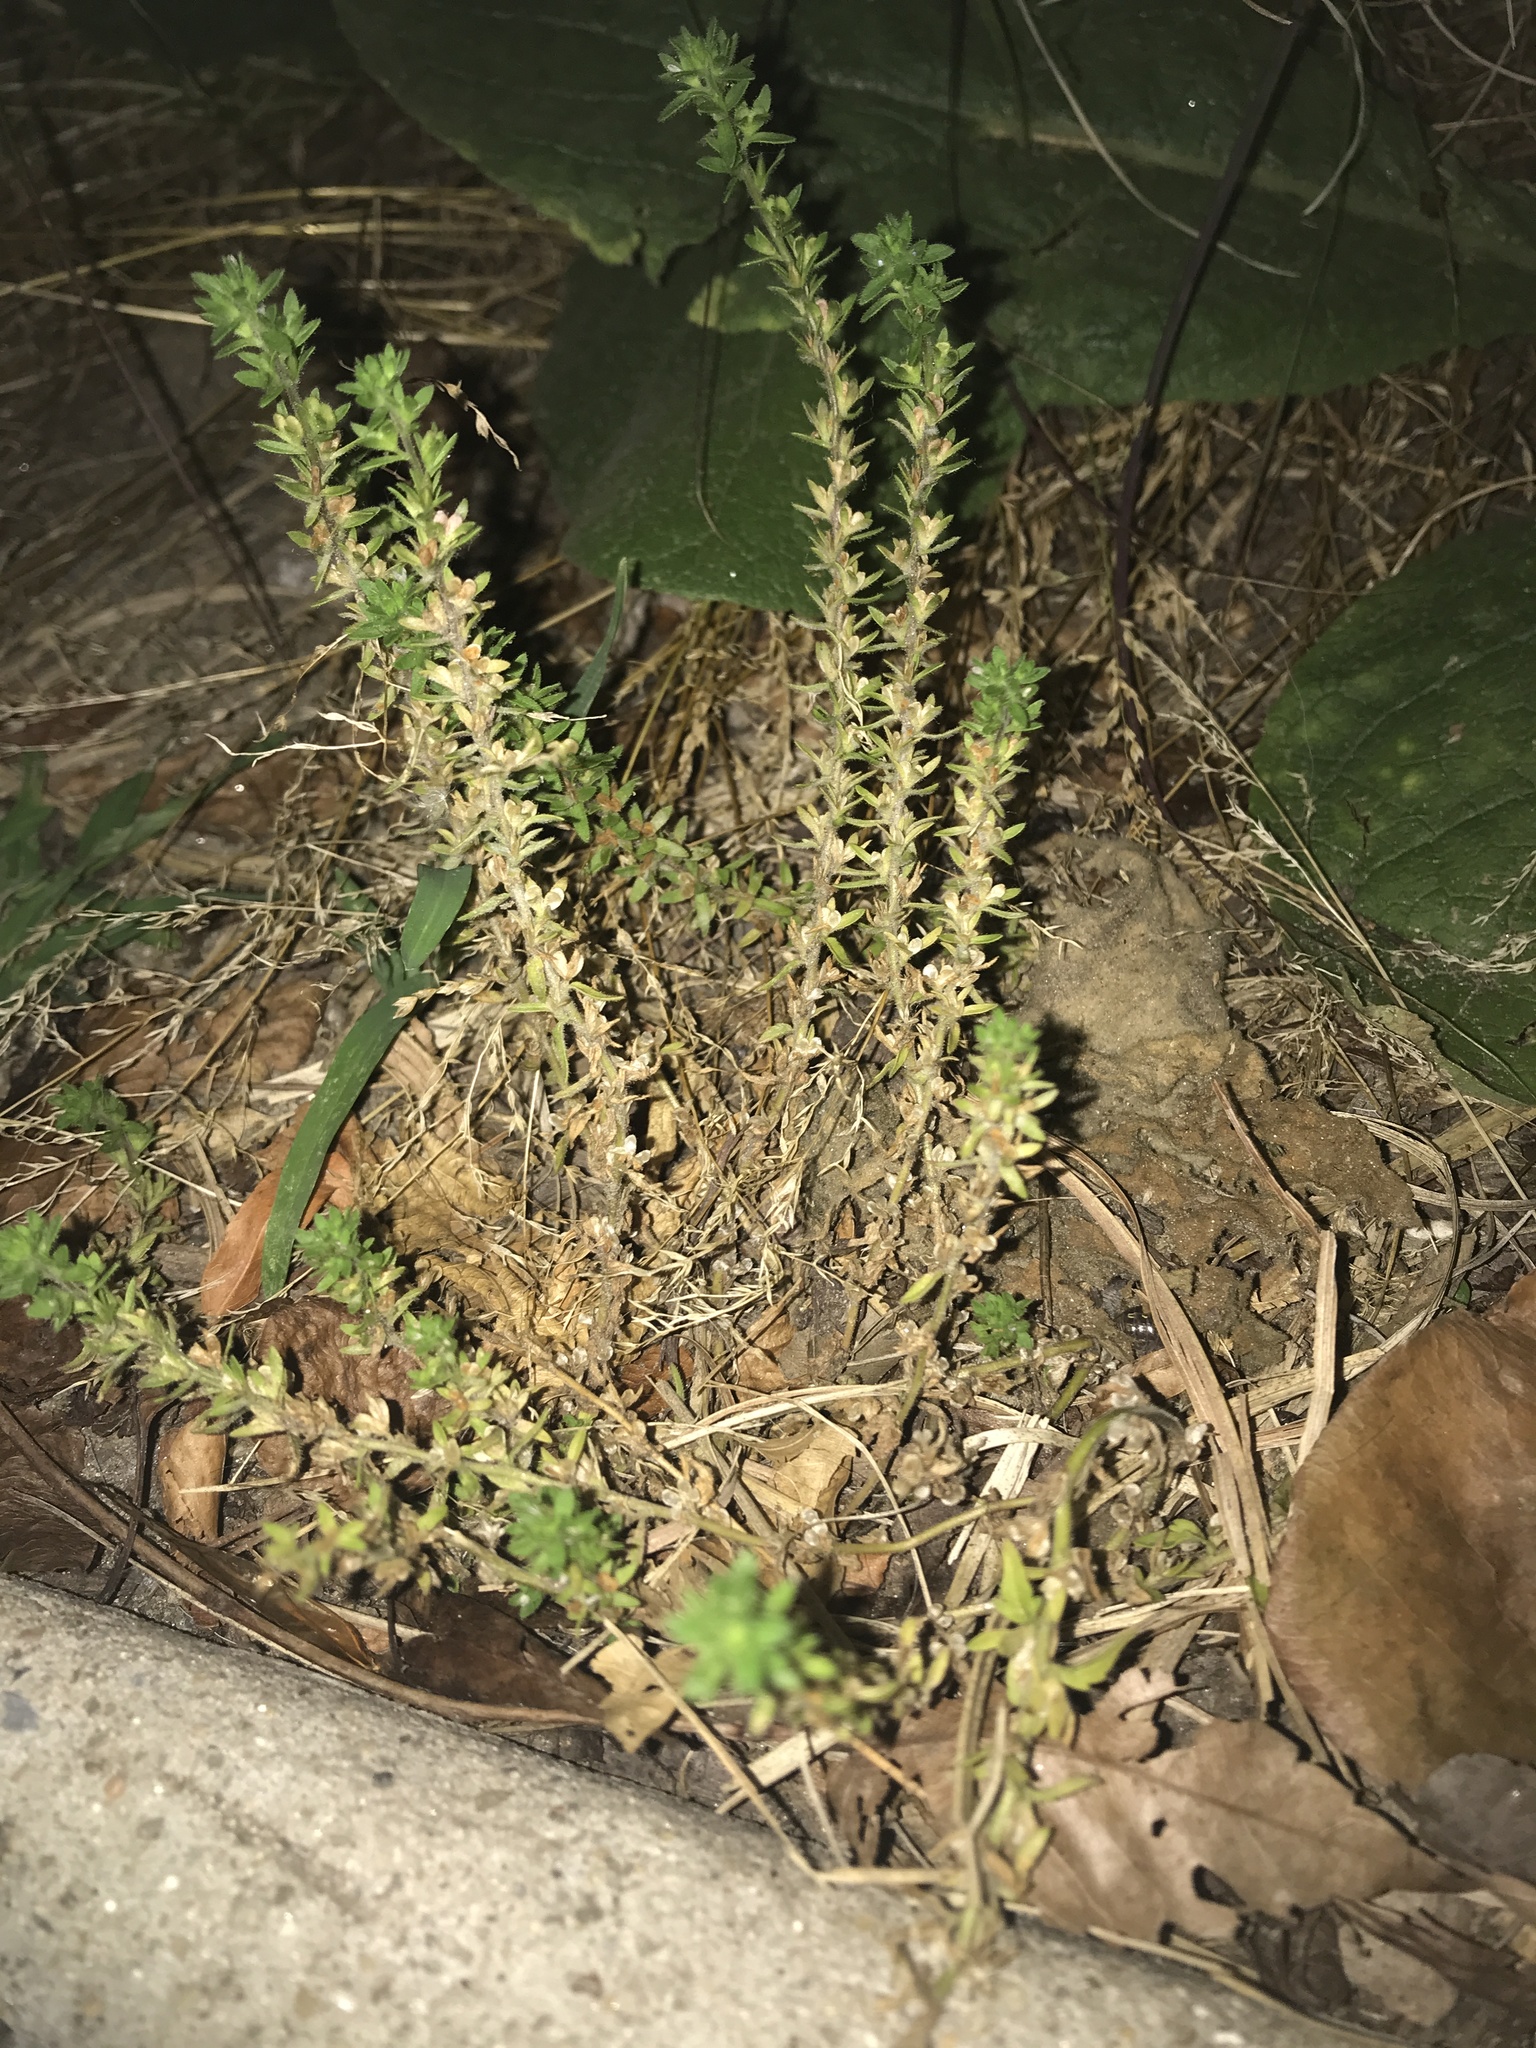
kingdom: Plantae
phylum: Tracheophyta
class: Magnoliopsida
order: Lamiales
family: Plantaginaceae
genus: Veronica
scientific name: Veronica arvensis
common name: Corn speedwell
